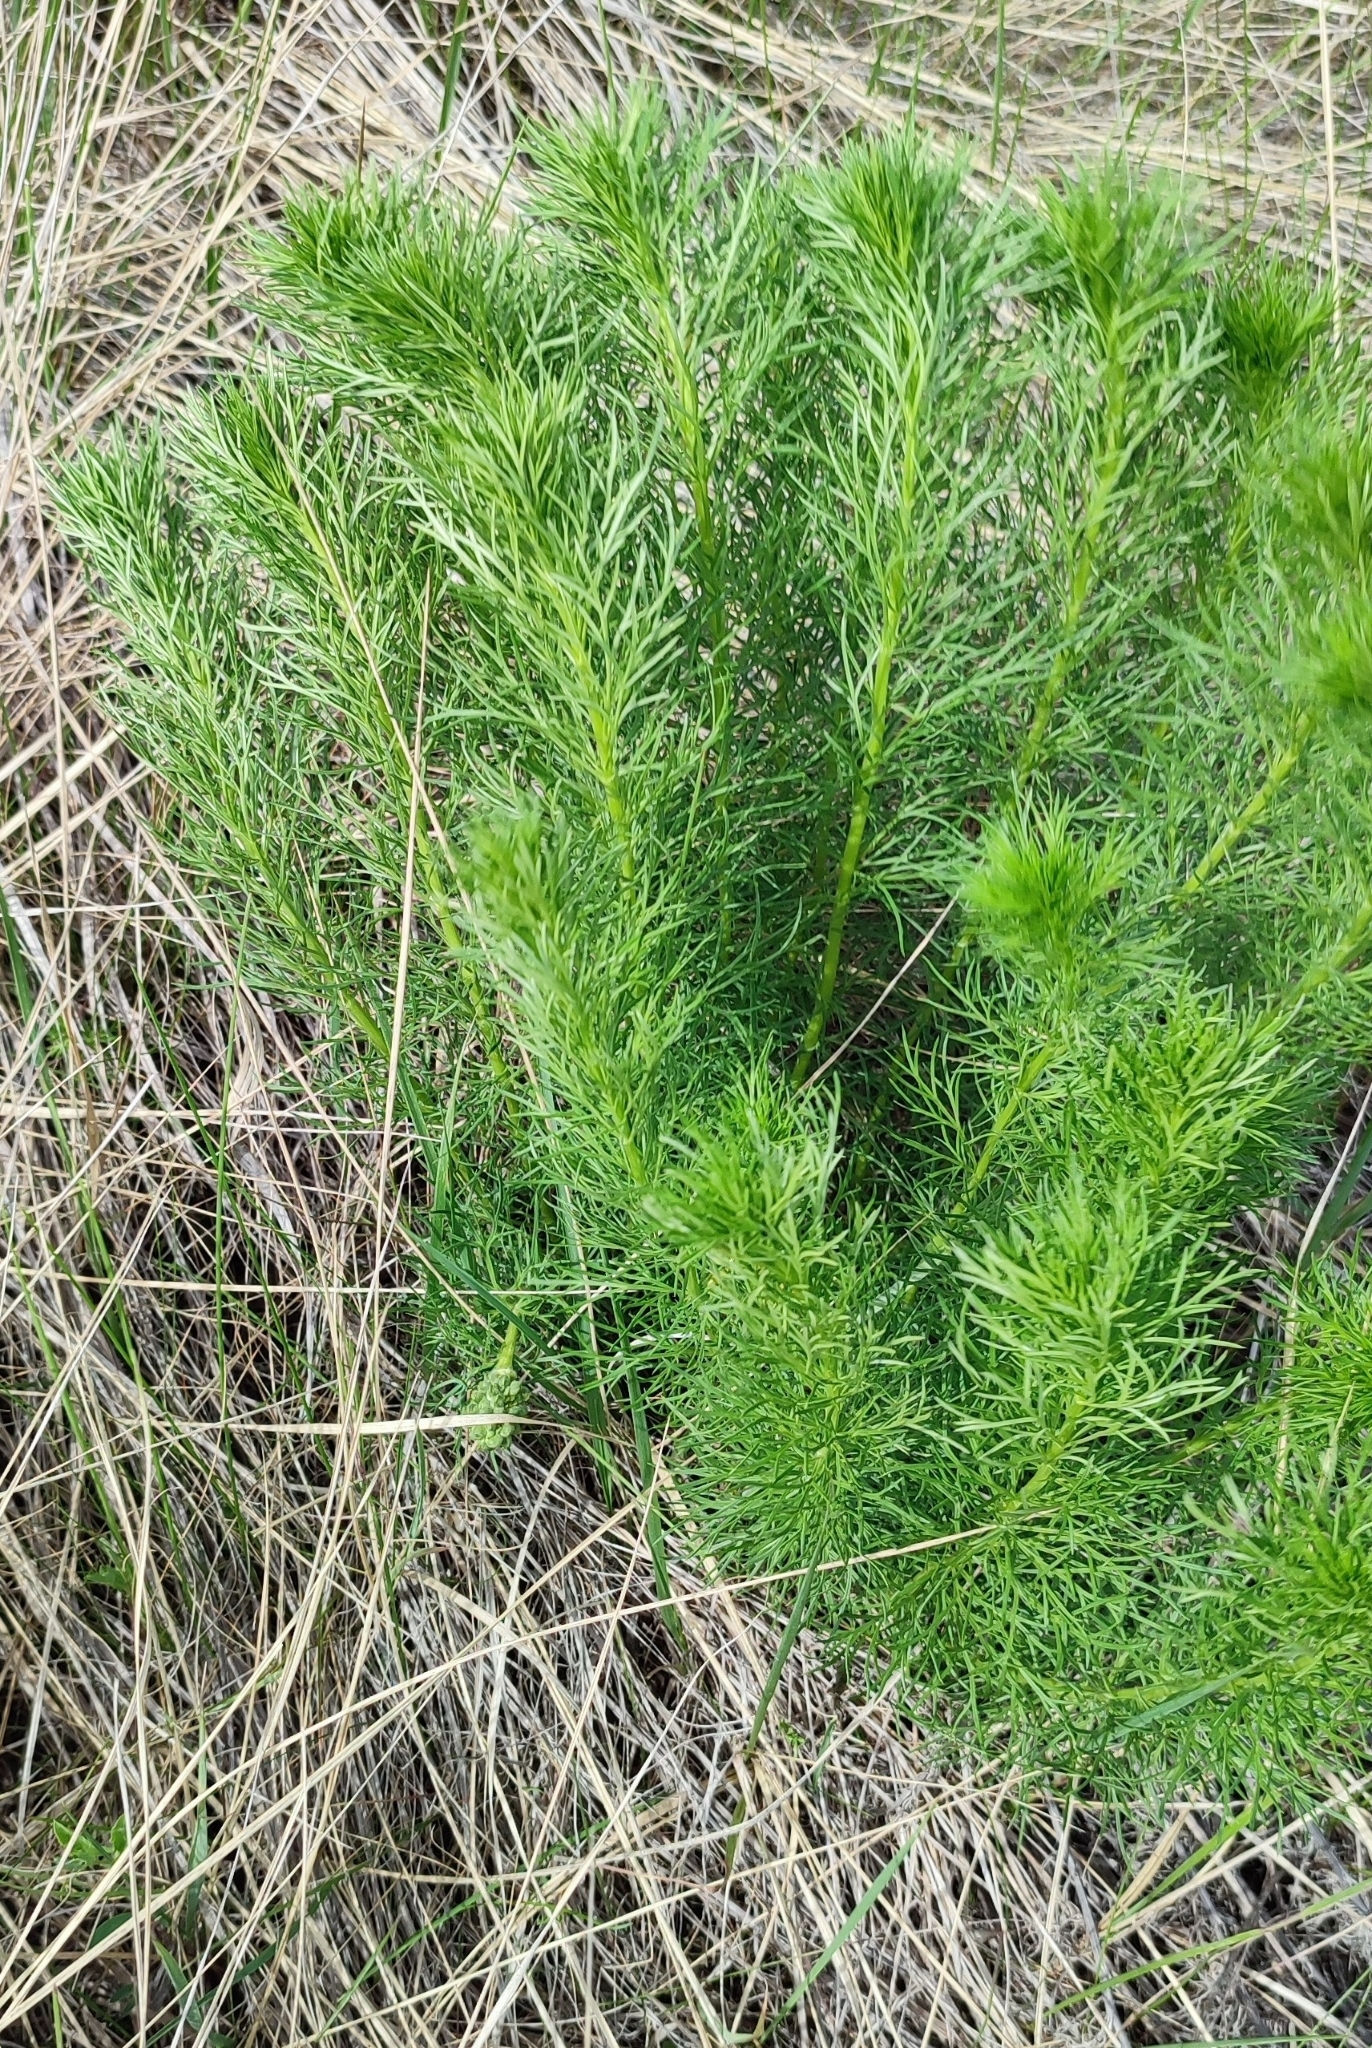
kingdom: Plantae
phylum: Tracheophyta
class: Magnoliopsida
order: Ranunculales
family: Ranunculaceae
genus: Adonis
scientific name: Adonis vernalis
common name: Yellow pheasants-eye
